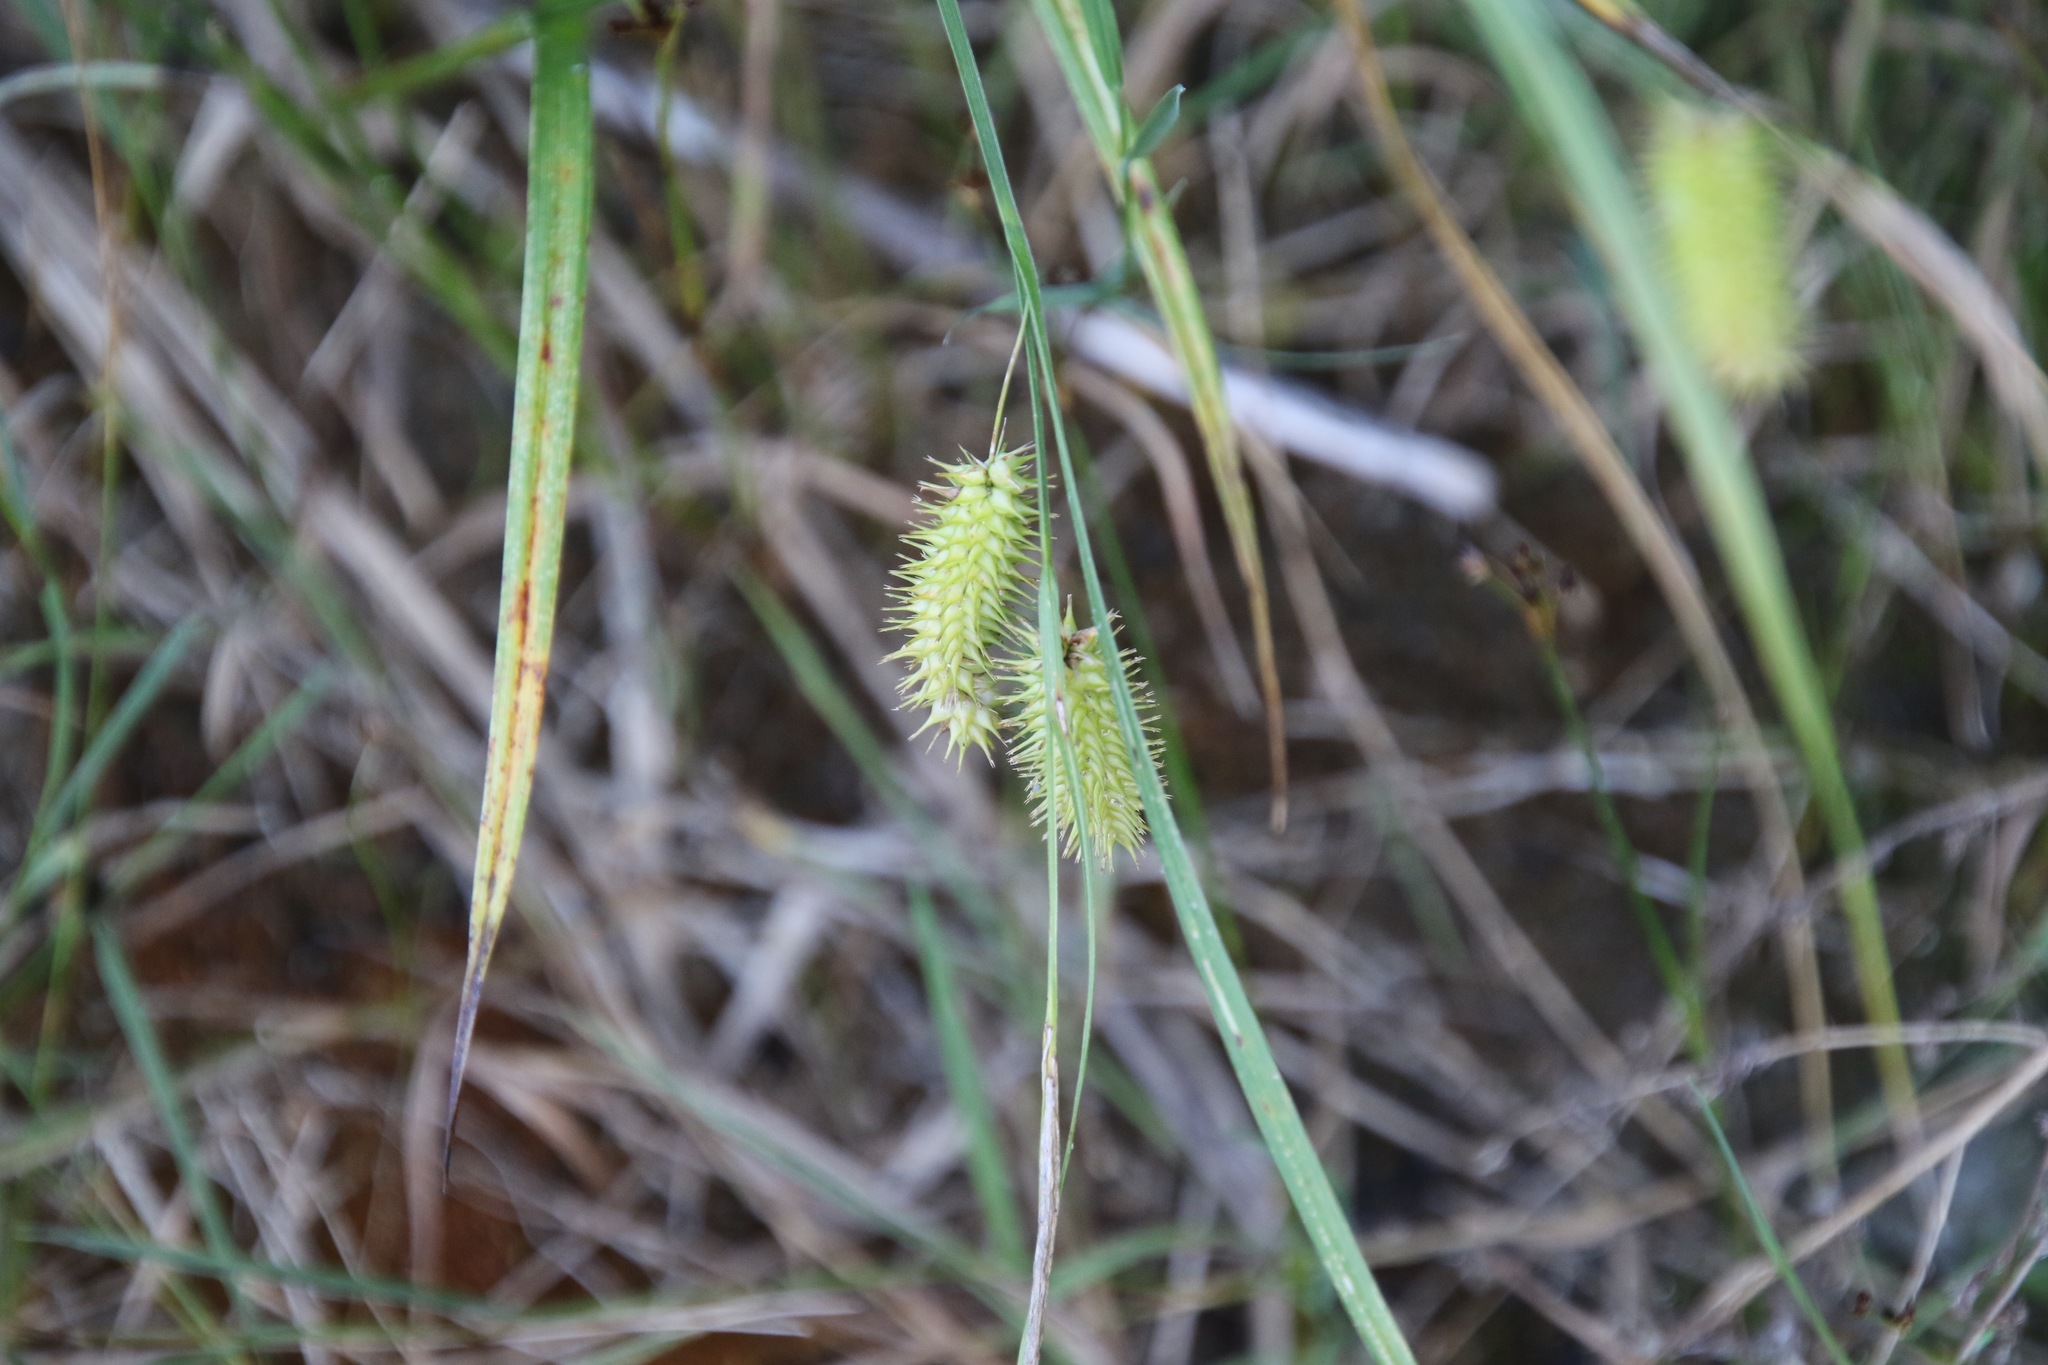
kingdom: Plantae
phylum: Tracheophyta
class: Liliopsida
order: Poales
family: Cyperaceae
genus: Carex
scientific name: Carex hystericina
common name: Bottlebrush sedge
